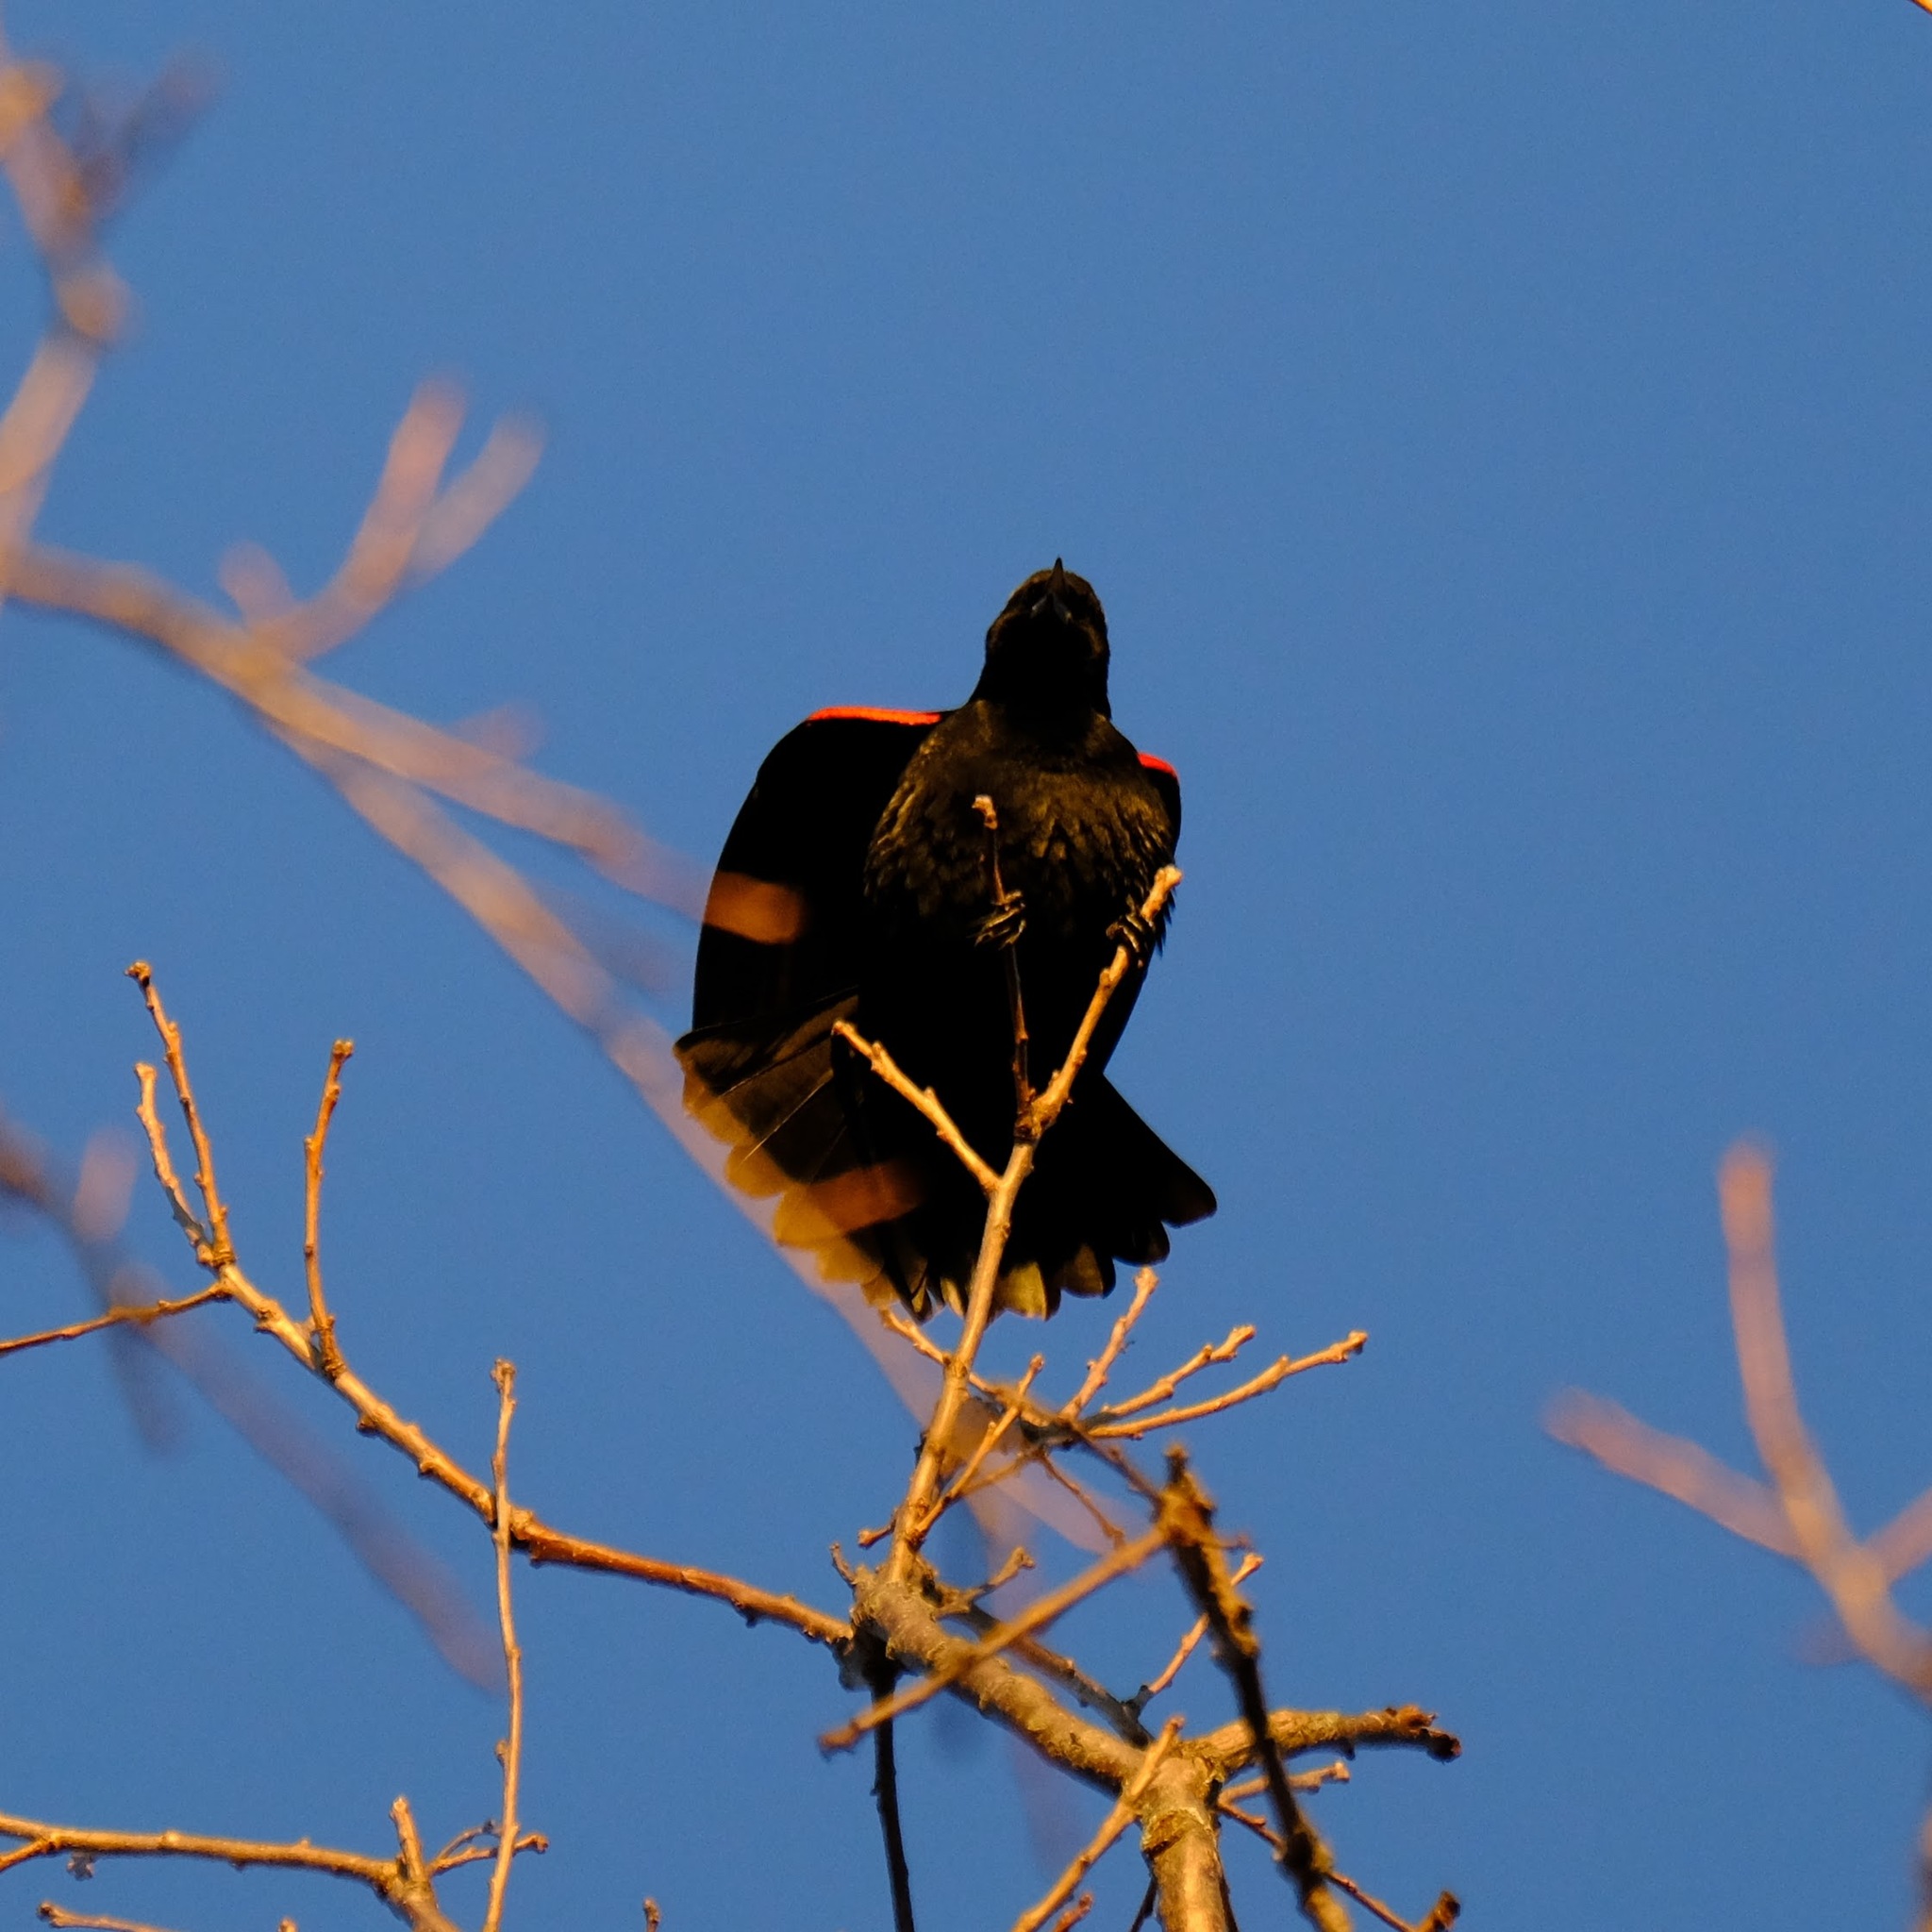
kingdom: Animalia
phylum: Chordata
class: Aves
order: Passeriformes
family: Icteridae
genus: Agelaius
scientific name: Agelaius phoeniceus
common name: Red-winged blackbird
